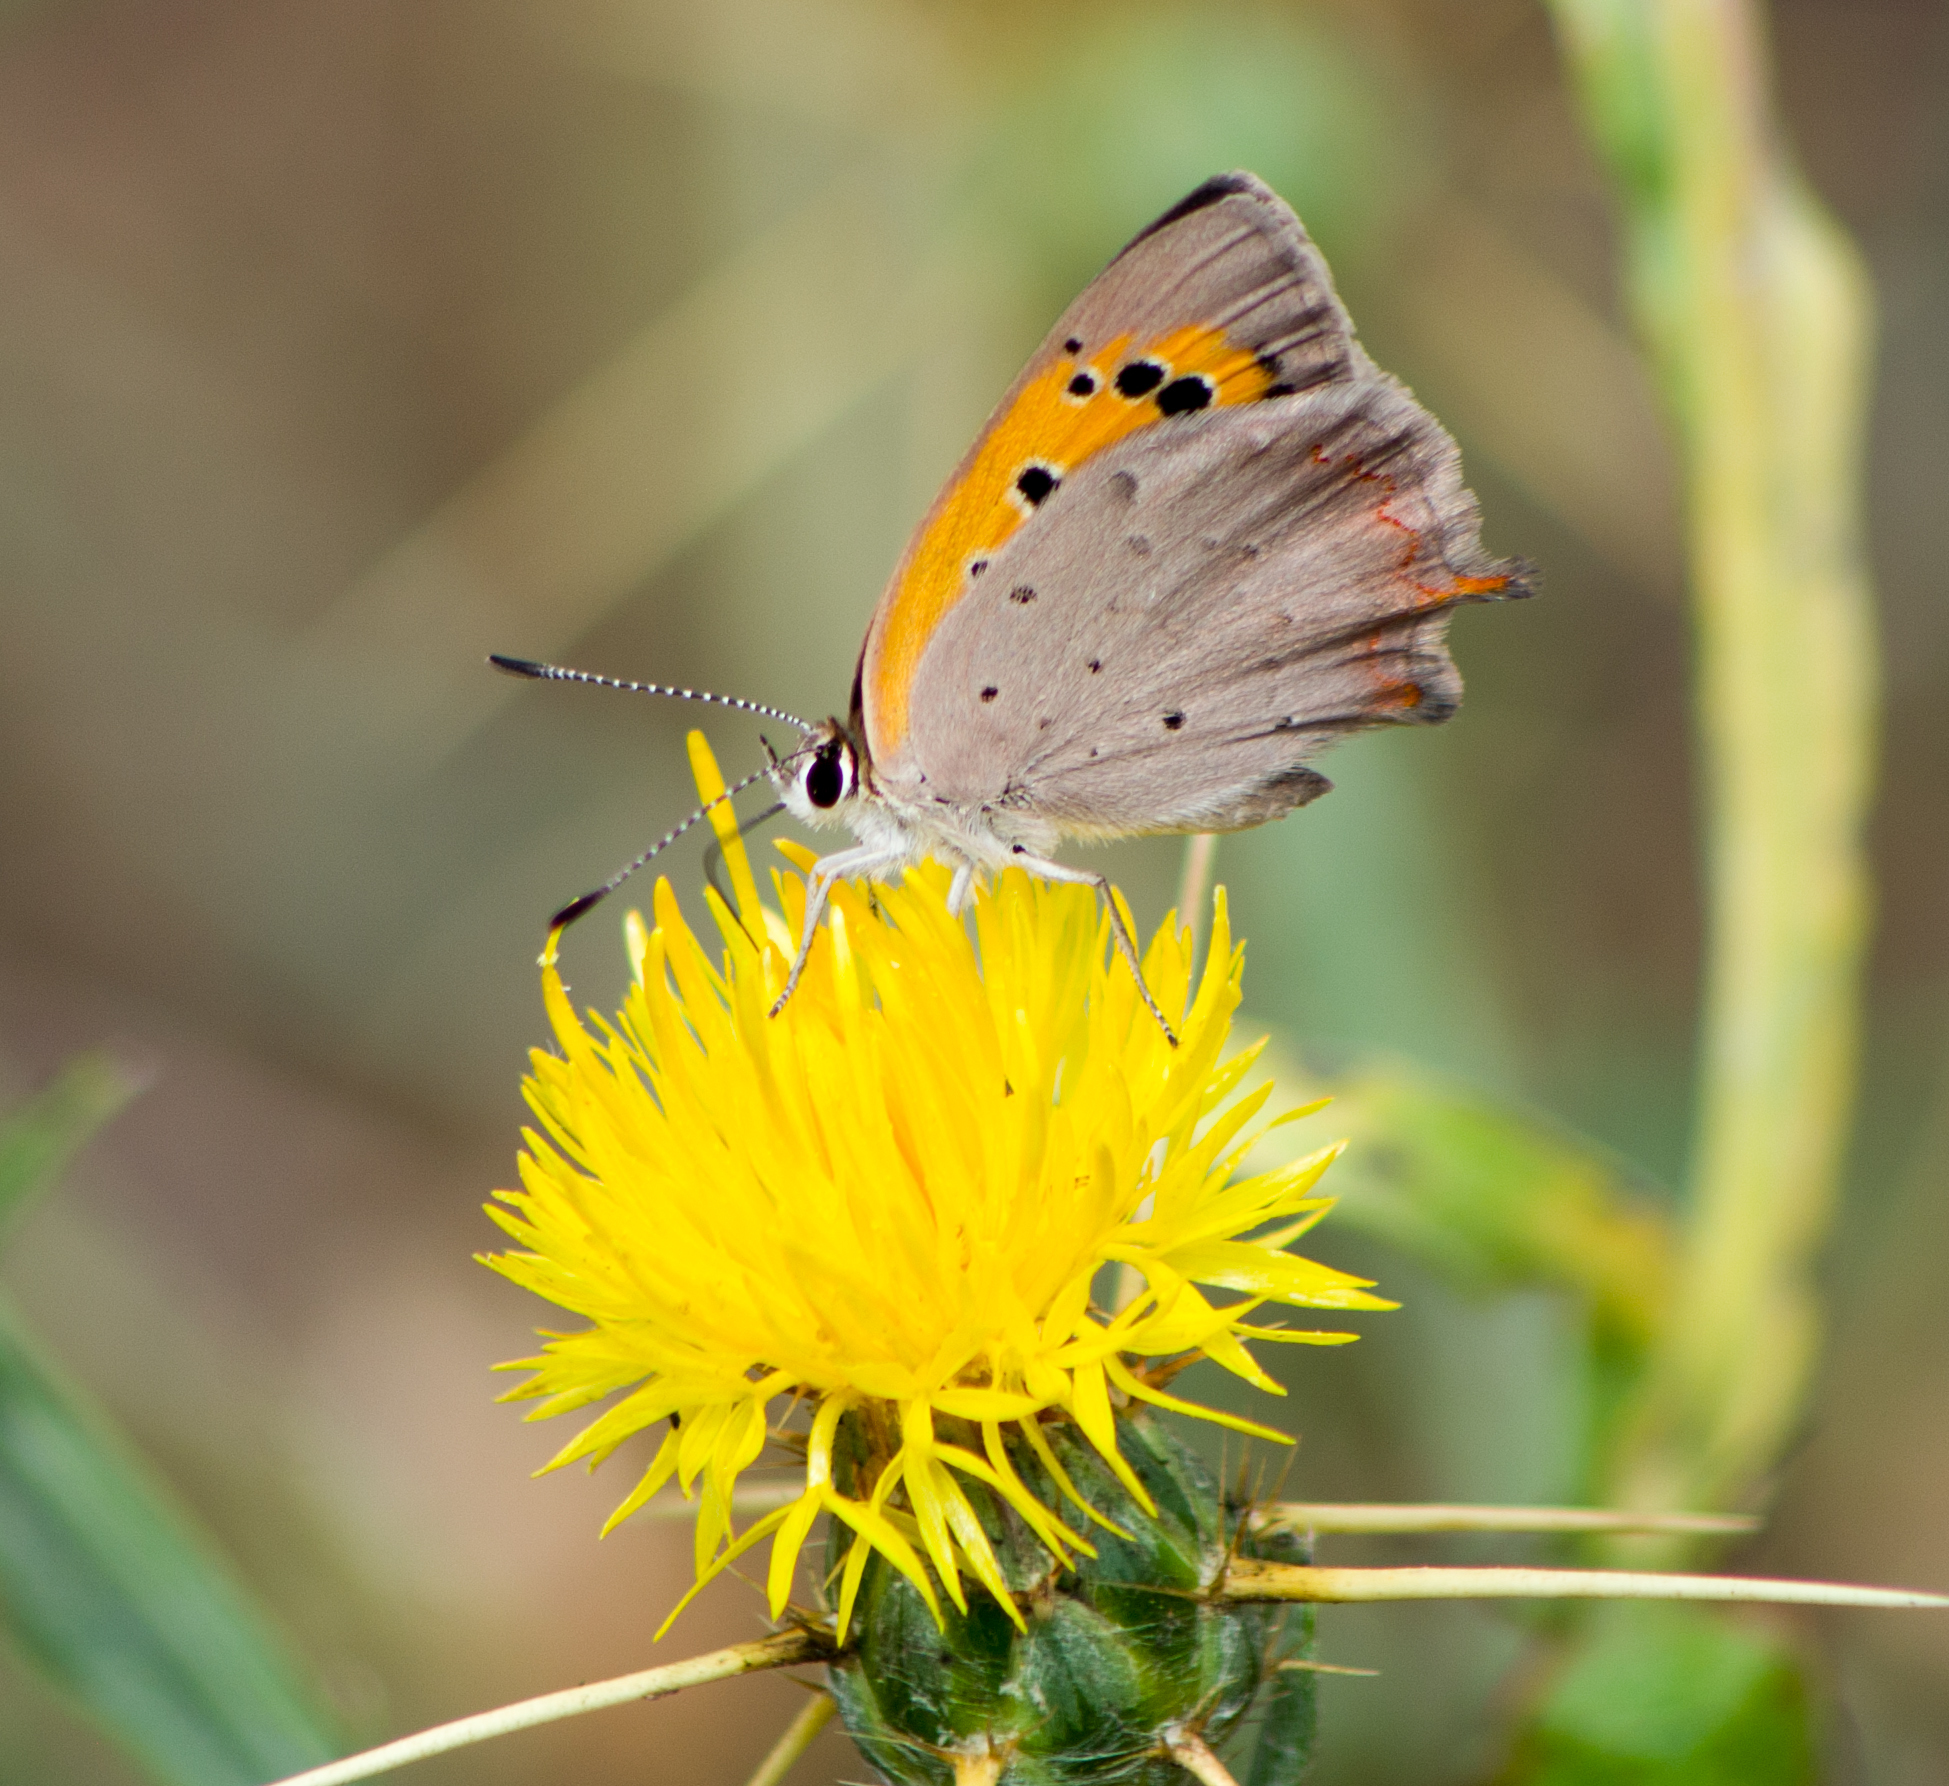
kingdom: Animalia
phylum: Arthropoda
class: Insecta
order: Lepidoptera
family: Lycaenidae
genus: Lycaena
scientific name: Lycaena phlaeas
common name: Small copper
